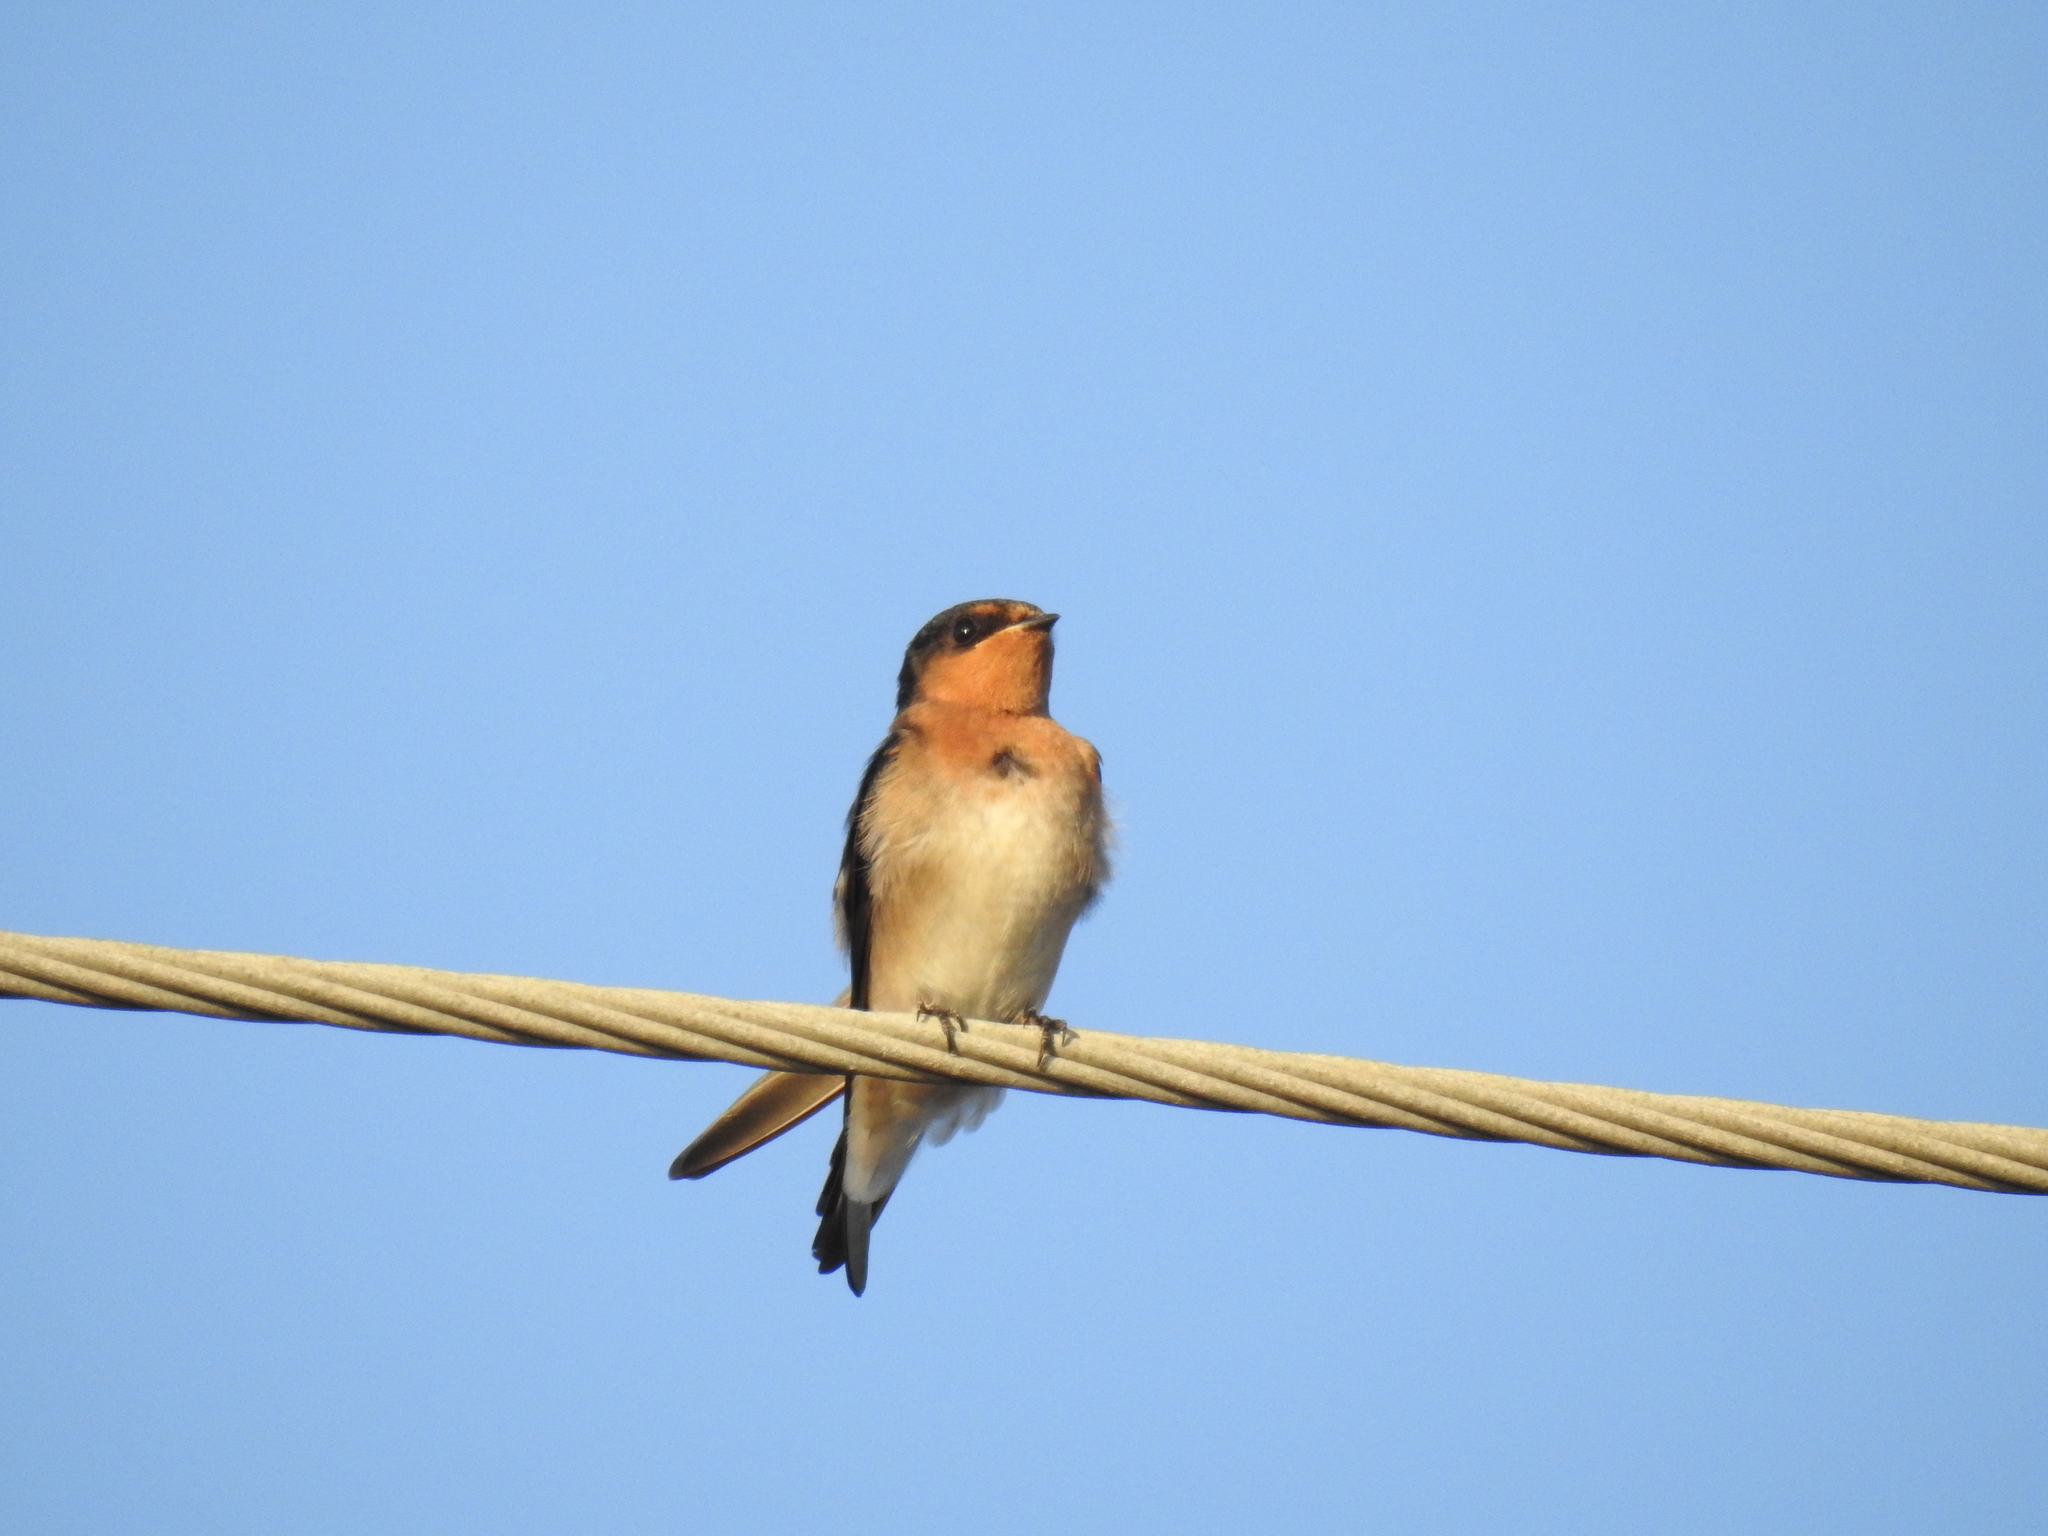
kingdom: Animalia
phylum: Chordata
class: Aves
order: Passeriformes
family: Hirundinidae
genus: Hirundo
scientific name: Hirundo neoxena
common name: Welcome swallow
